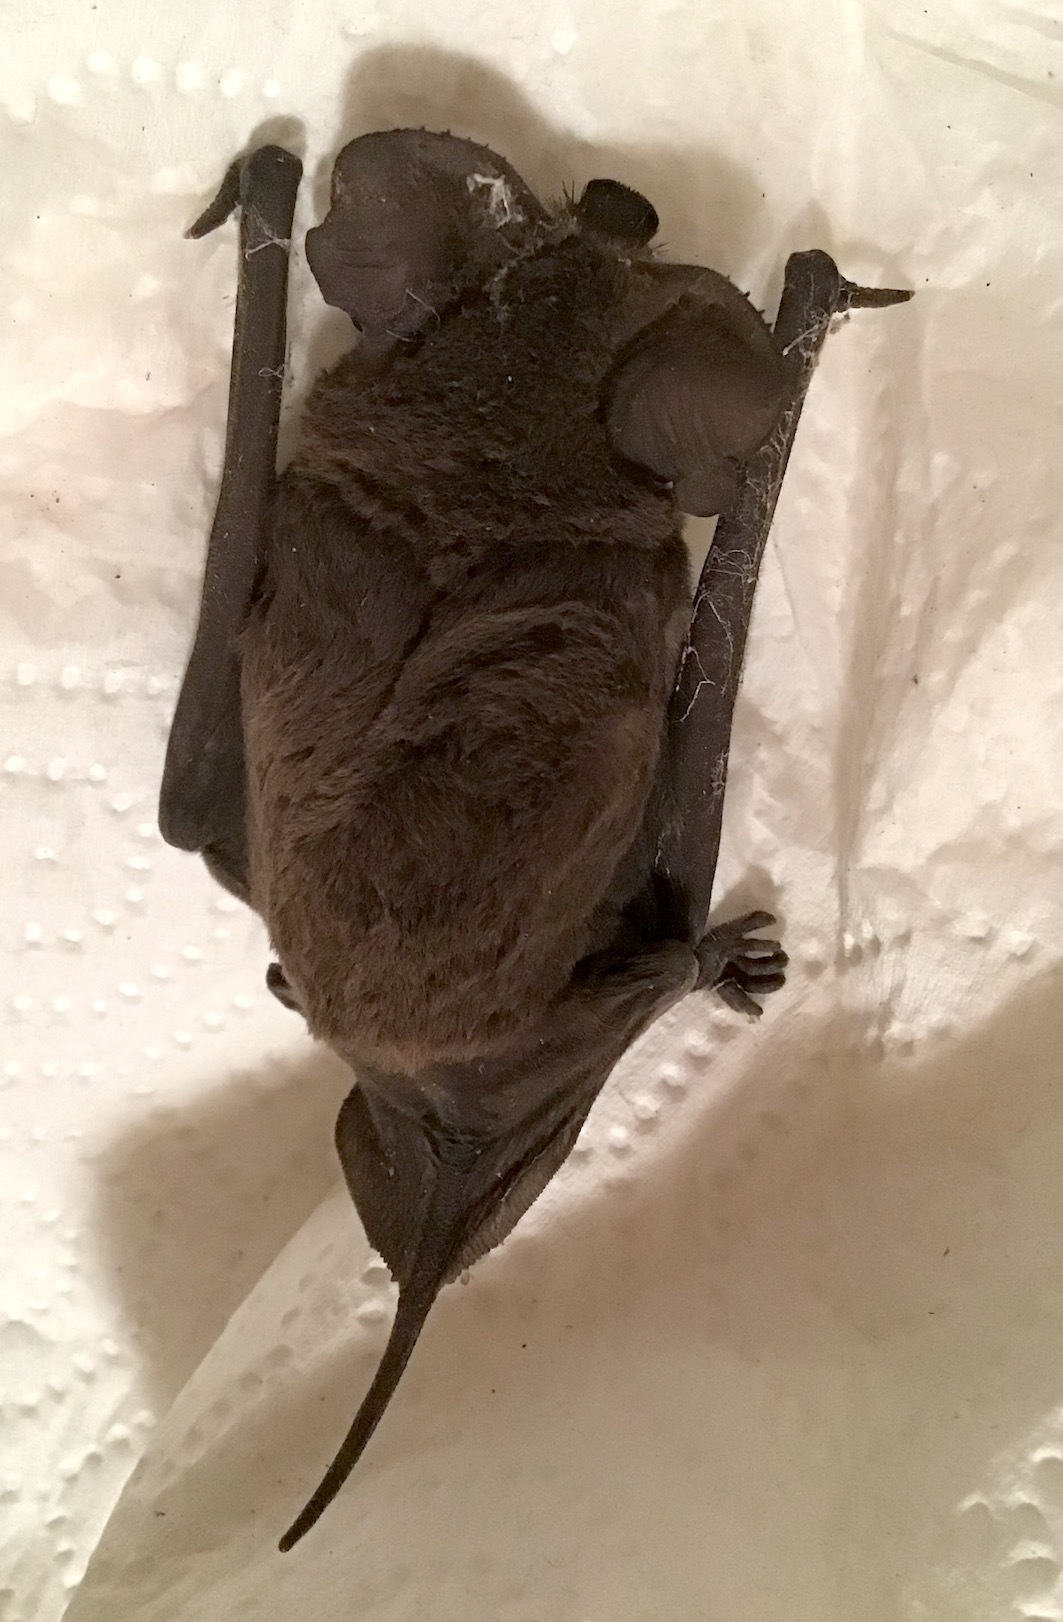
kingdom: Animalia
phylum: Chordata
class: Mammalia
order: Chiroptera
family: Molossidae
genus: Tadarida
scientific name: Tadarida brasiliensis
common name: Mexican free-tailed bat
